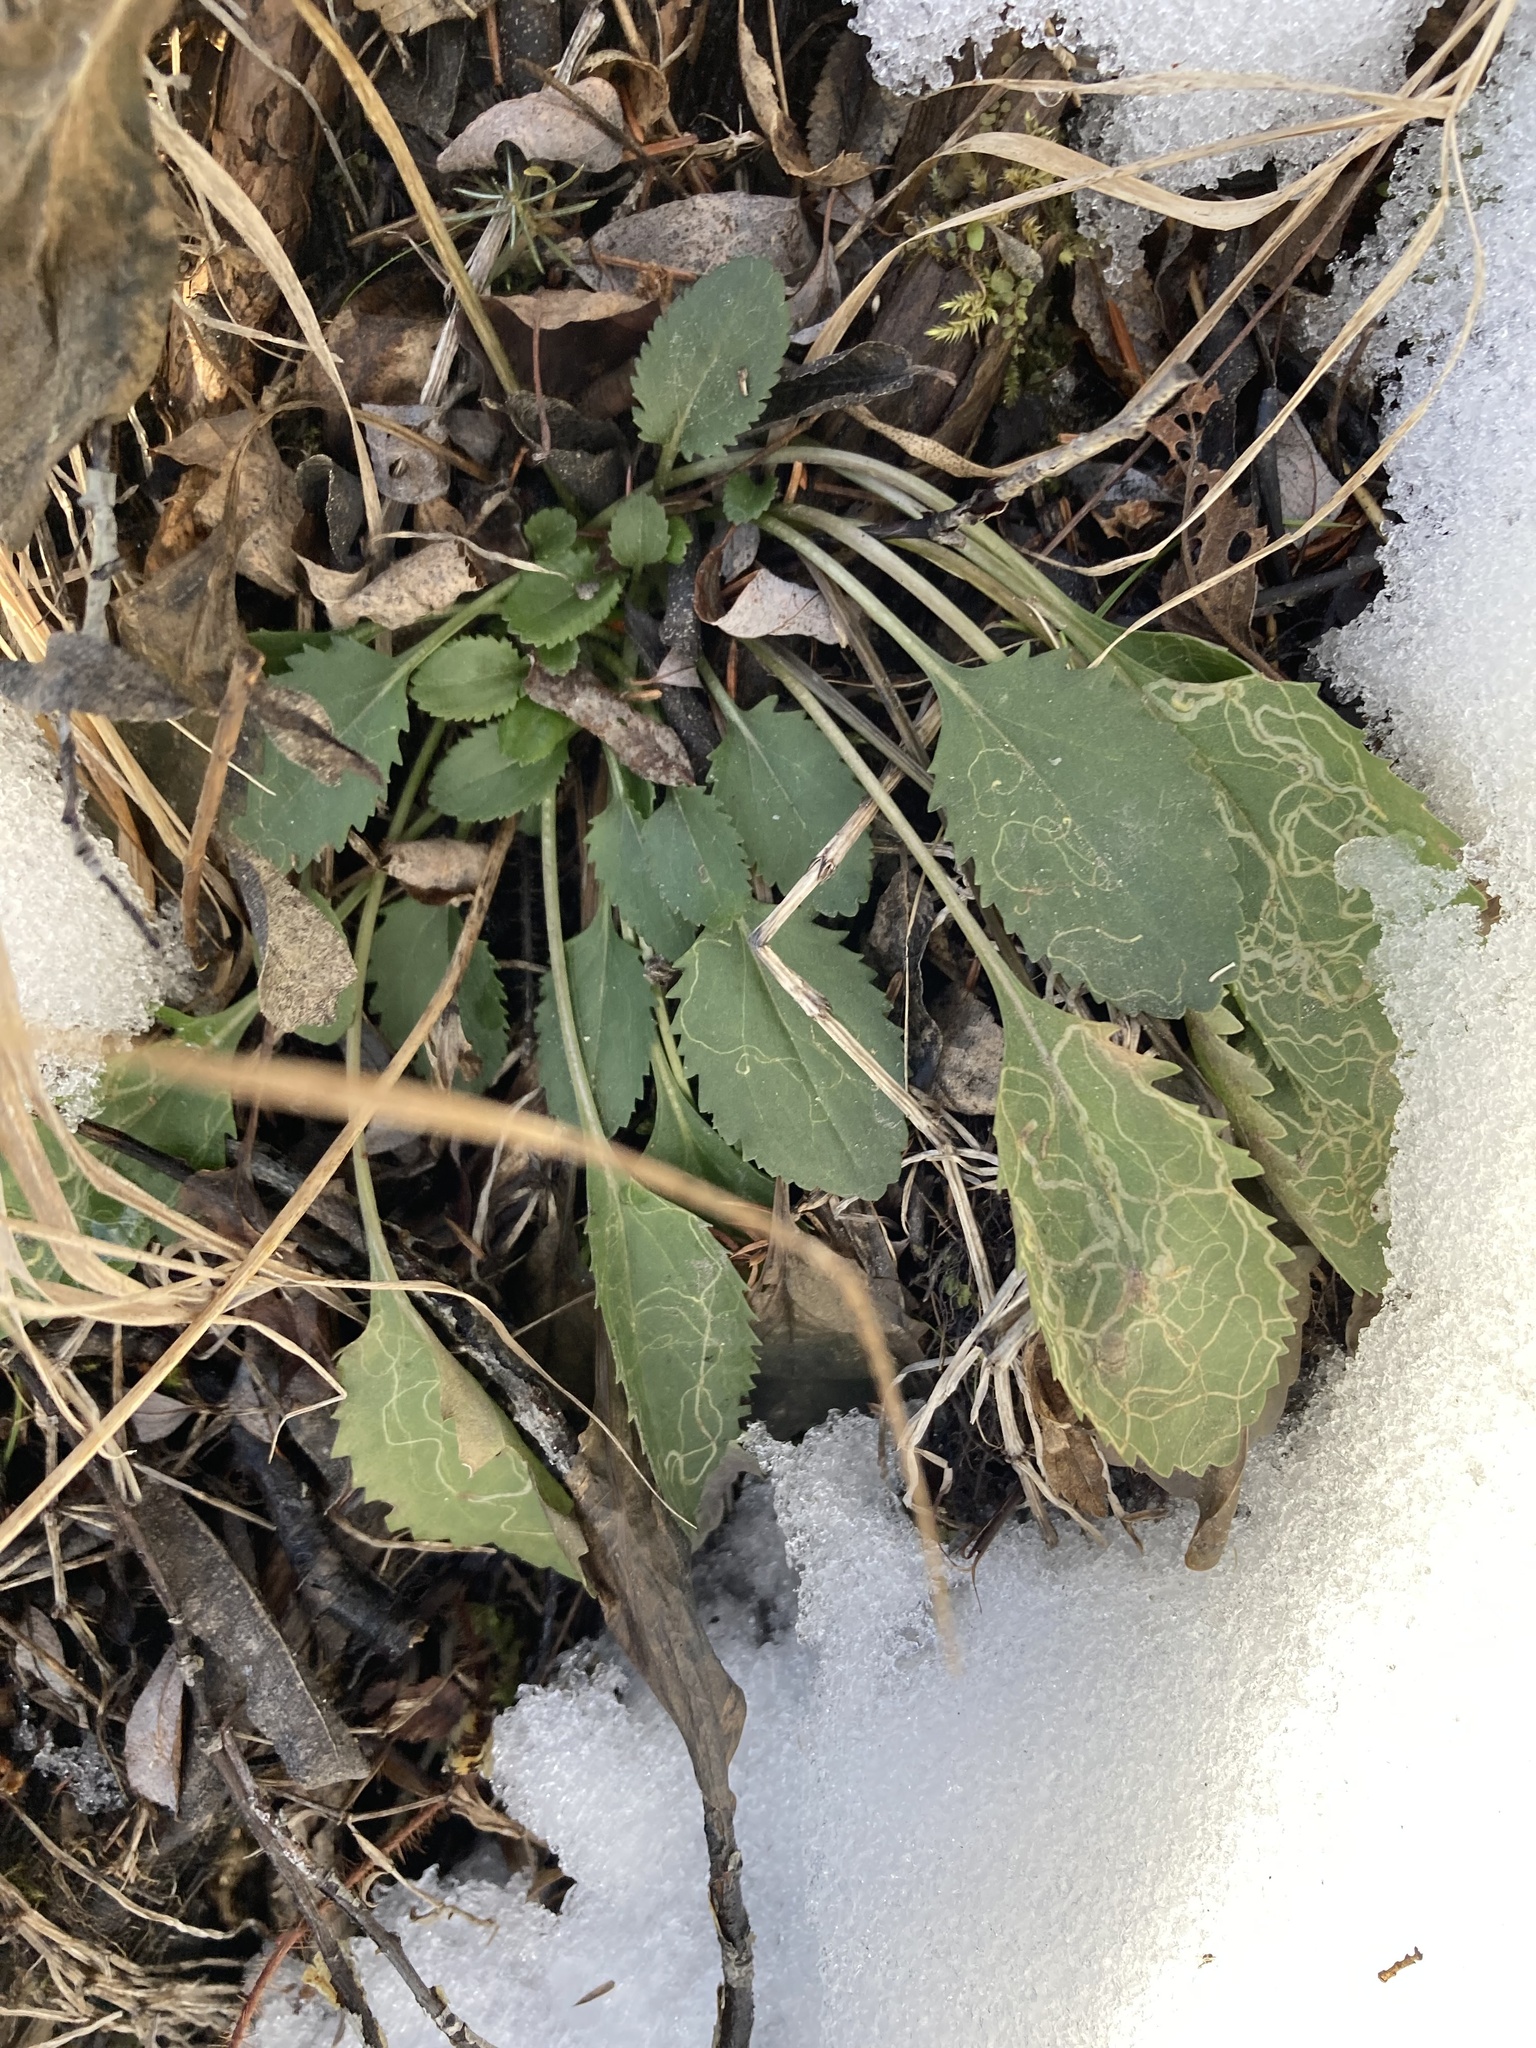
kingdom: Plantae
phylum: Tracheophyta
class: Magnoliopsida
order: Asterales
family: Asteraceae
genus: Packera
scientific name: Packera paupercula
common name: Balsam groundsel
